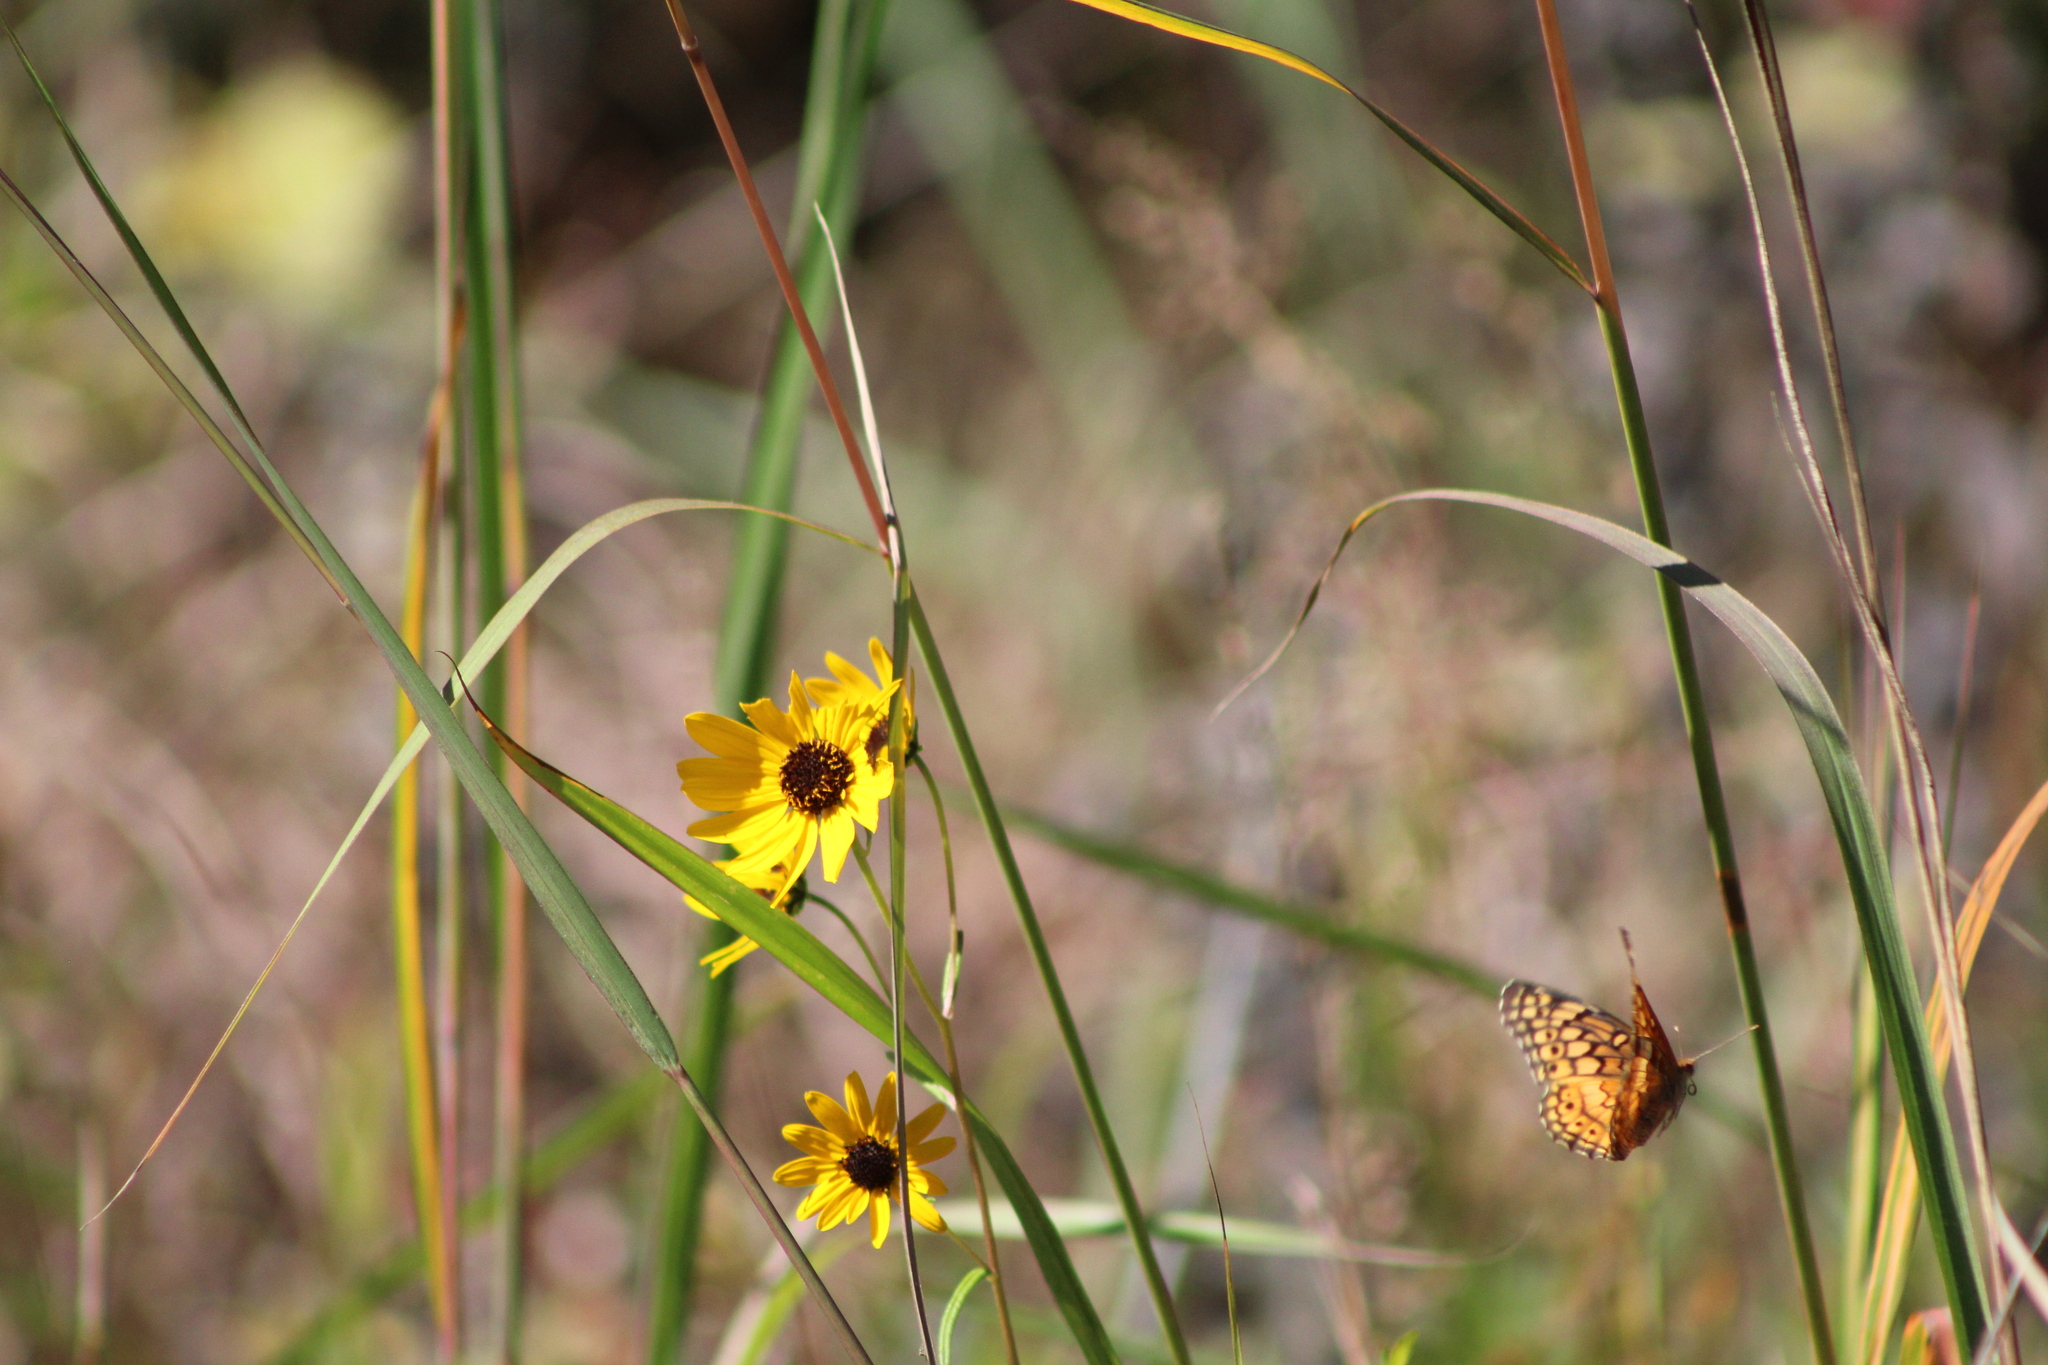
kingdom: Animalia
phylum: Arthropoda
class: Insecta
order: Lepidoptera
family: Nymphalidae
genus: Euptoieta
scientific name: Euptoieta claudia
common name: Variegated fritillary
